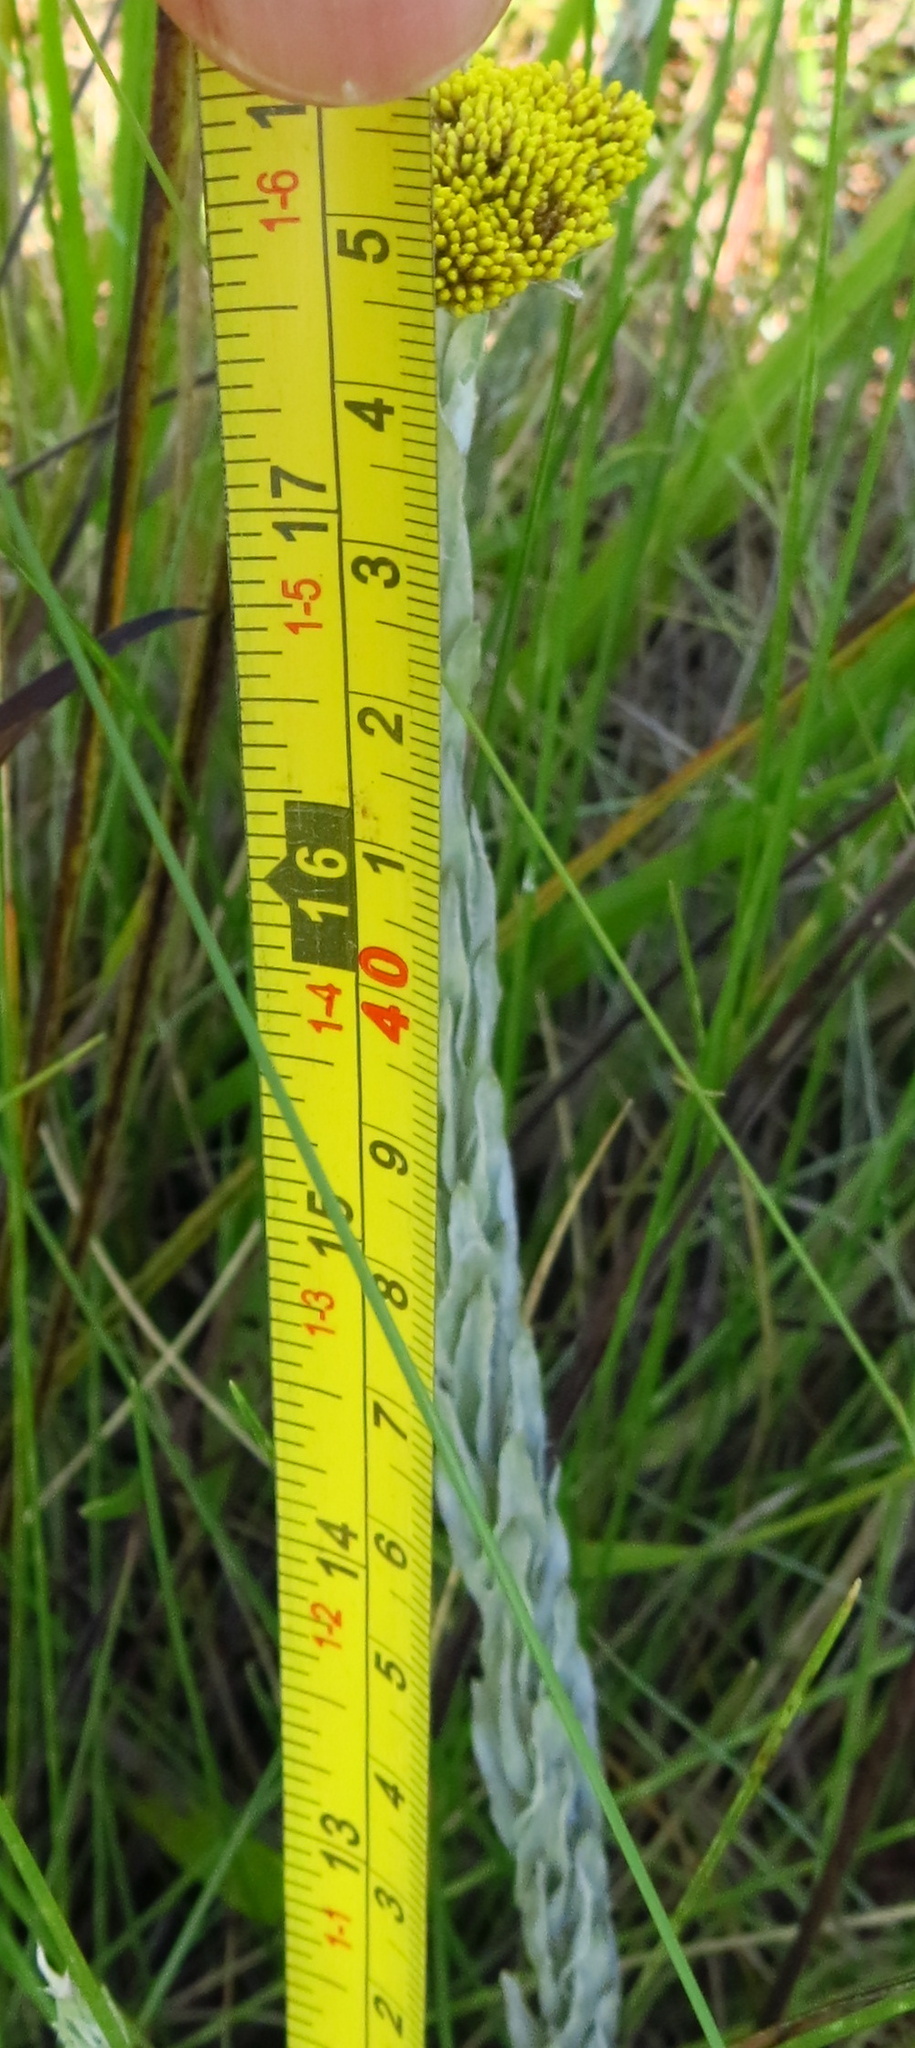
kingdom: Plantae
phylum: Tracheophyta
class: Magnoliopsida
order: Asterales
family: Asteraceae
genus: Helichrysum
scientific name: Helichrysum glomeratum
